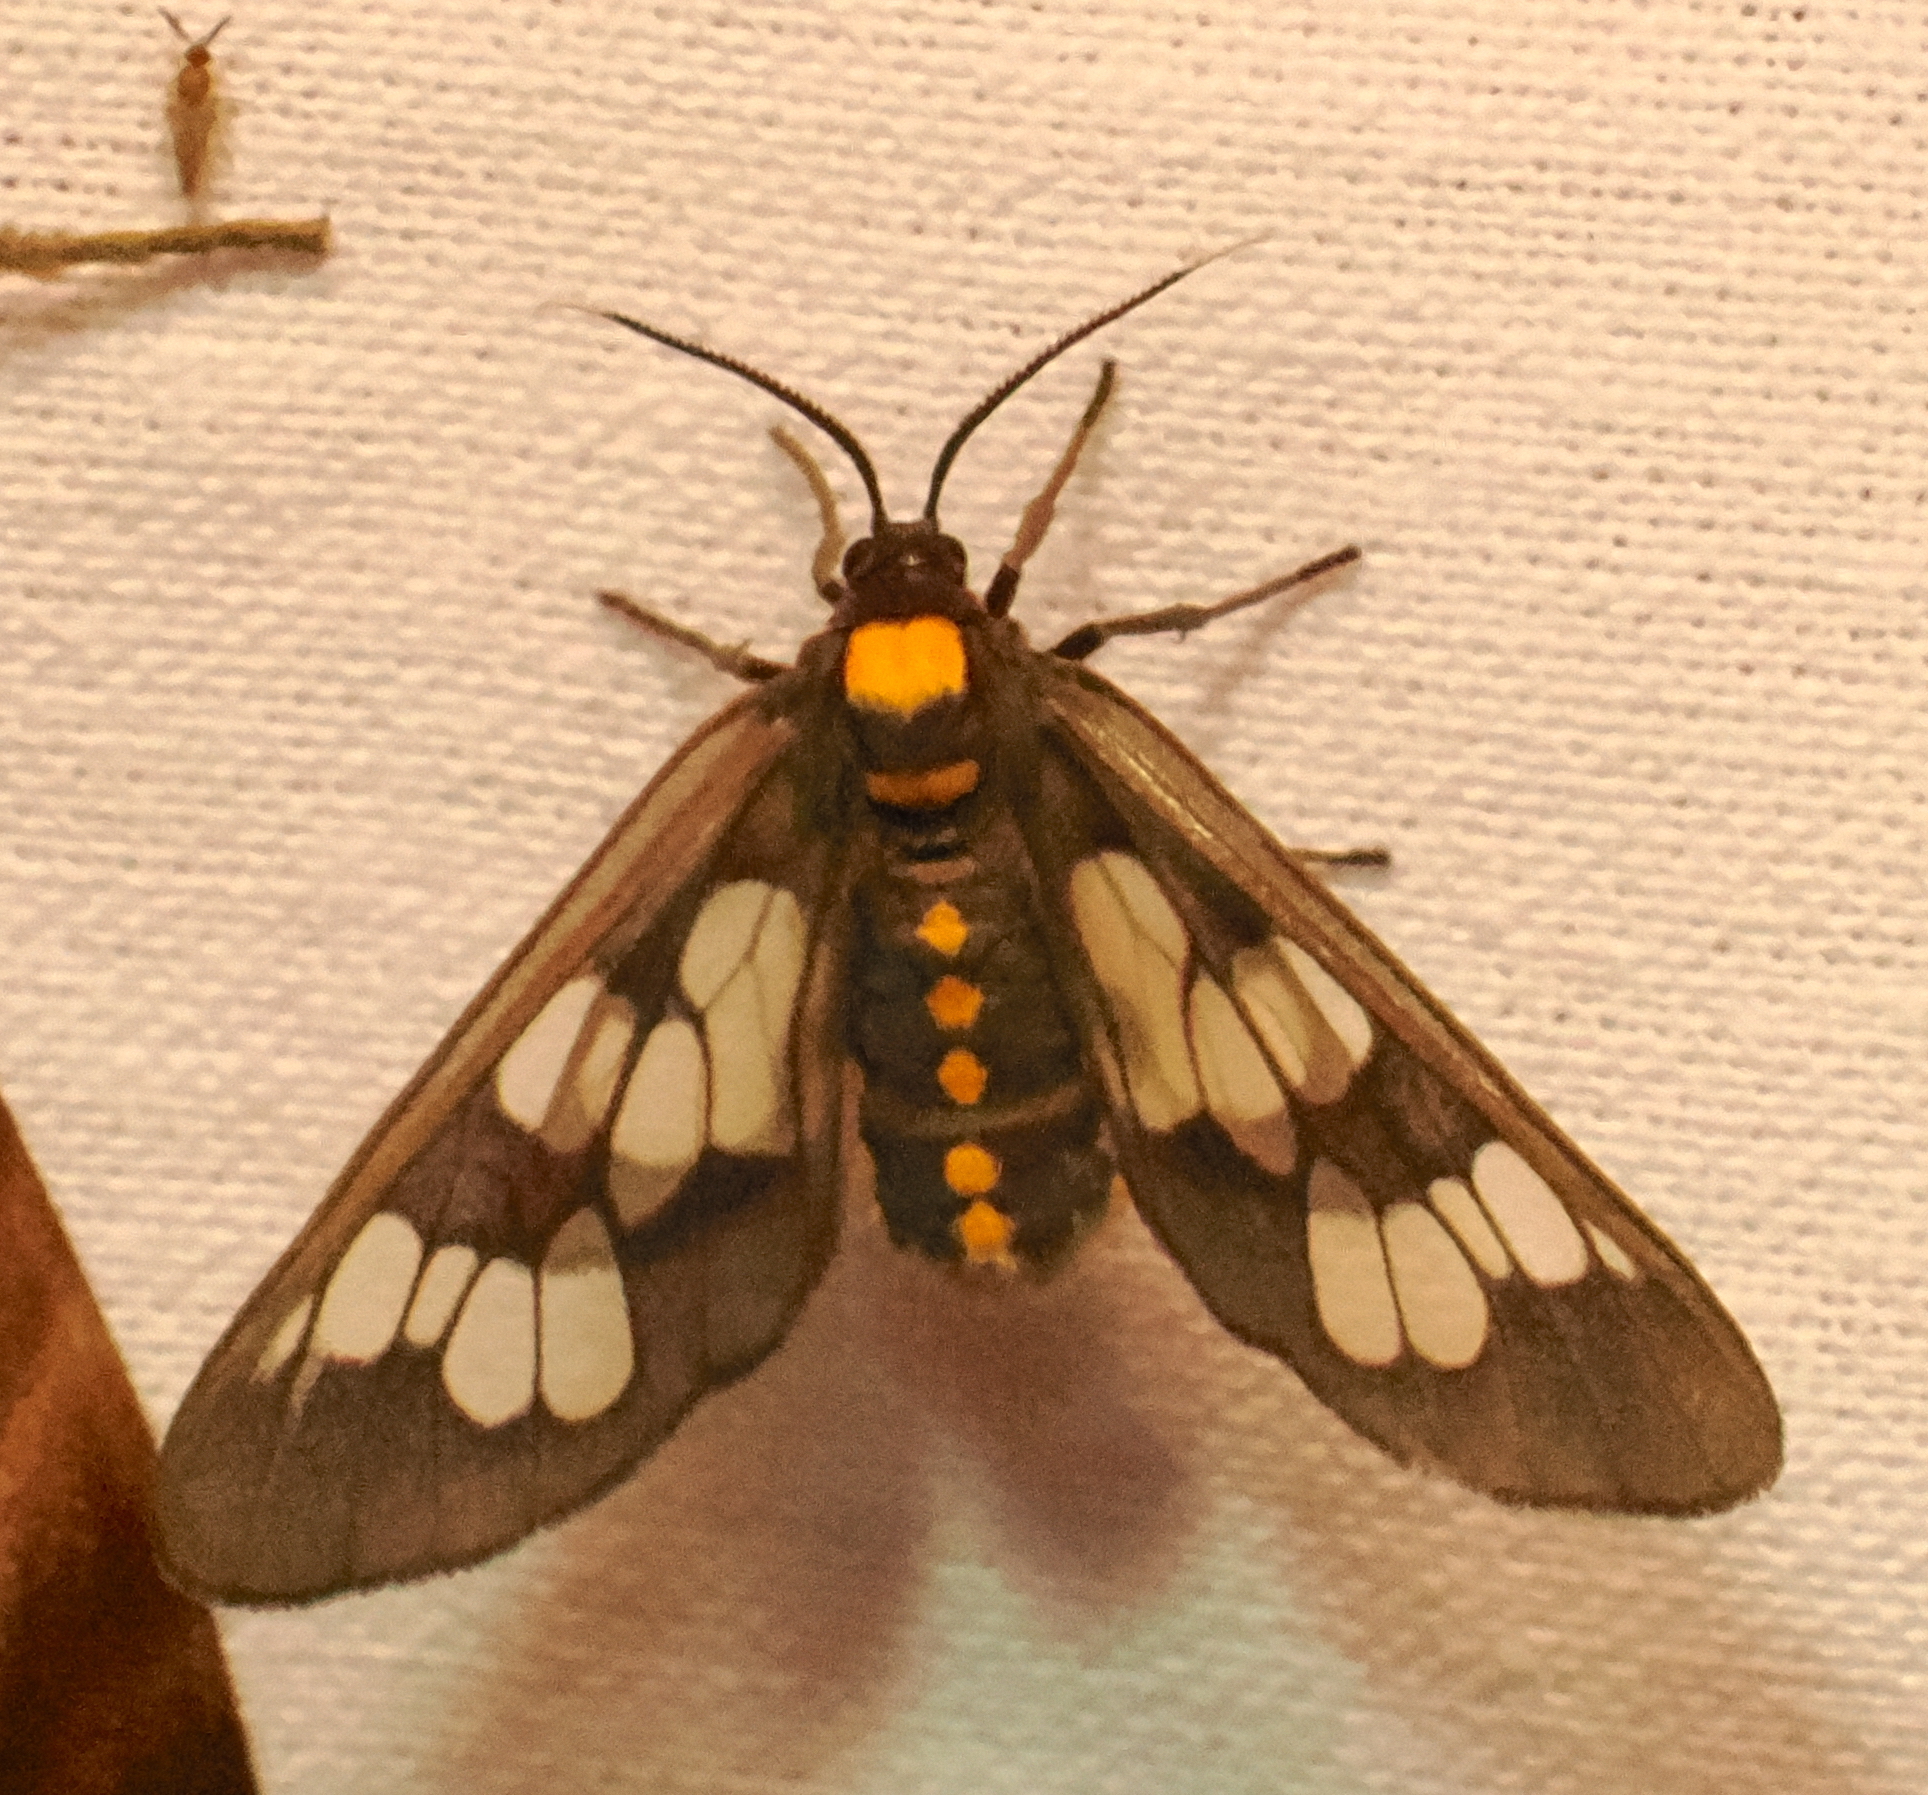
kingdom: Animalia
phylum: Arthropoda
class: Insecta
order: Lepidoptera
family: Erebidae
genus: Eressa
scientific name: Eressa confinis
